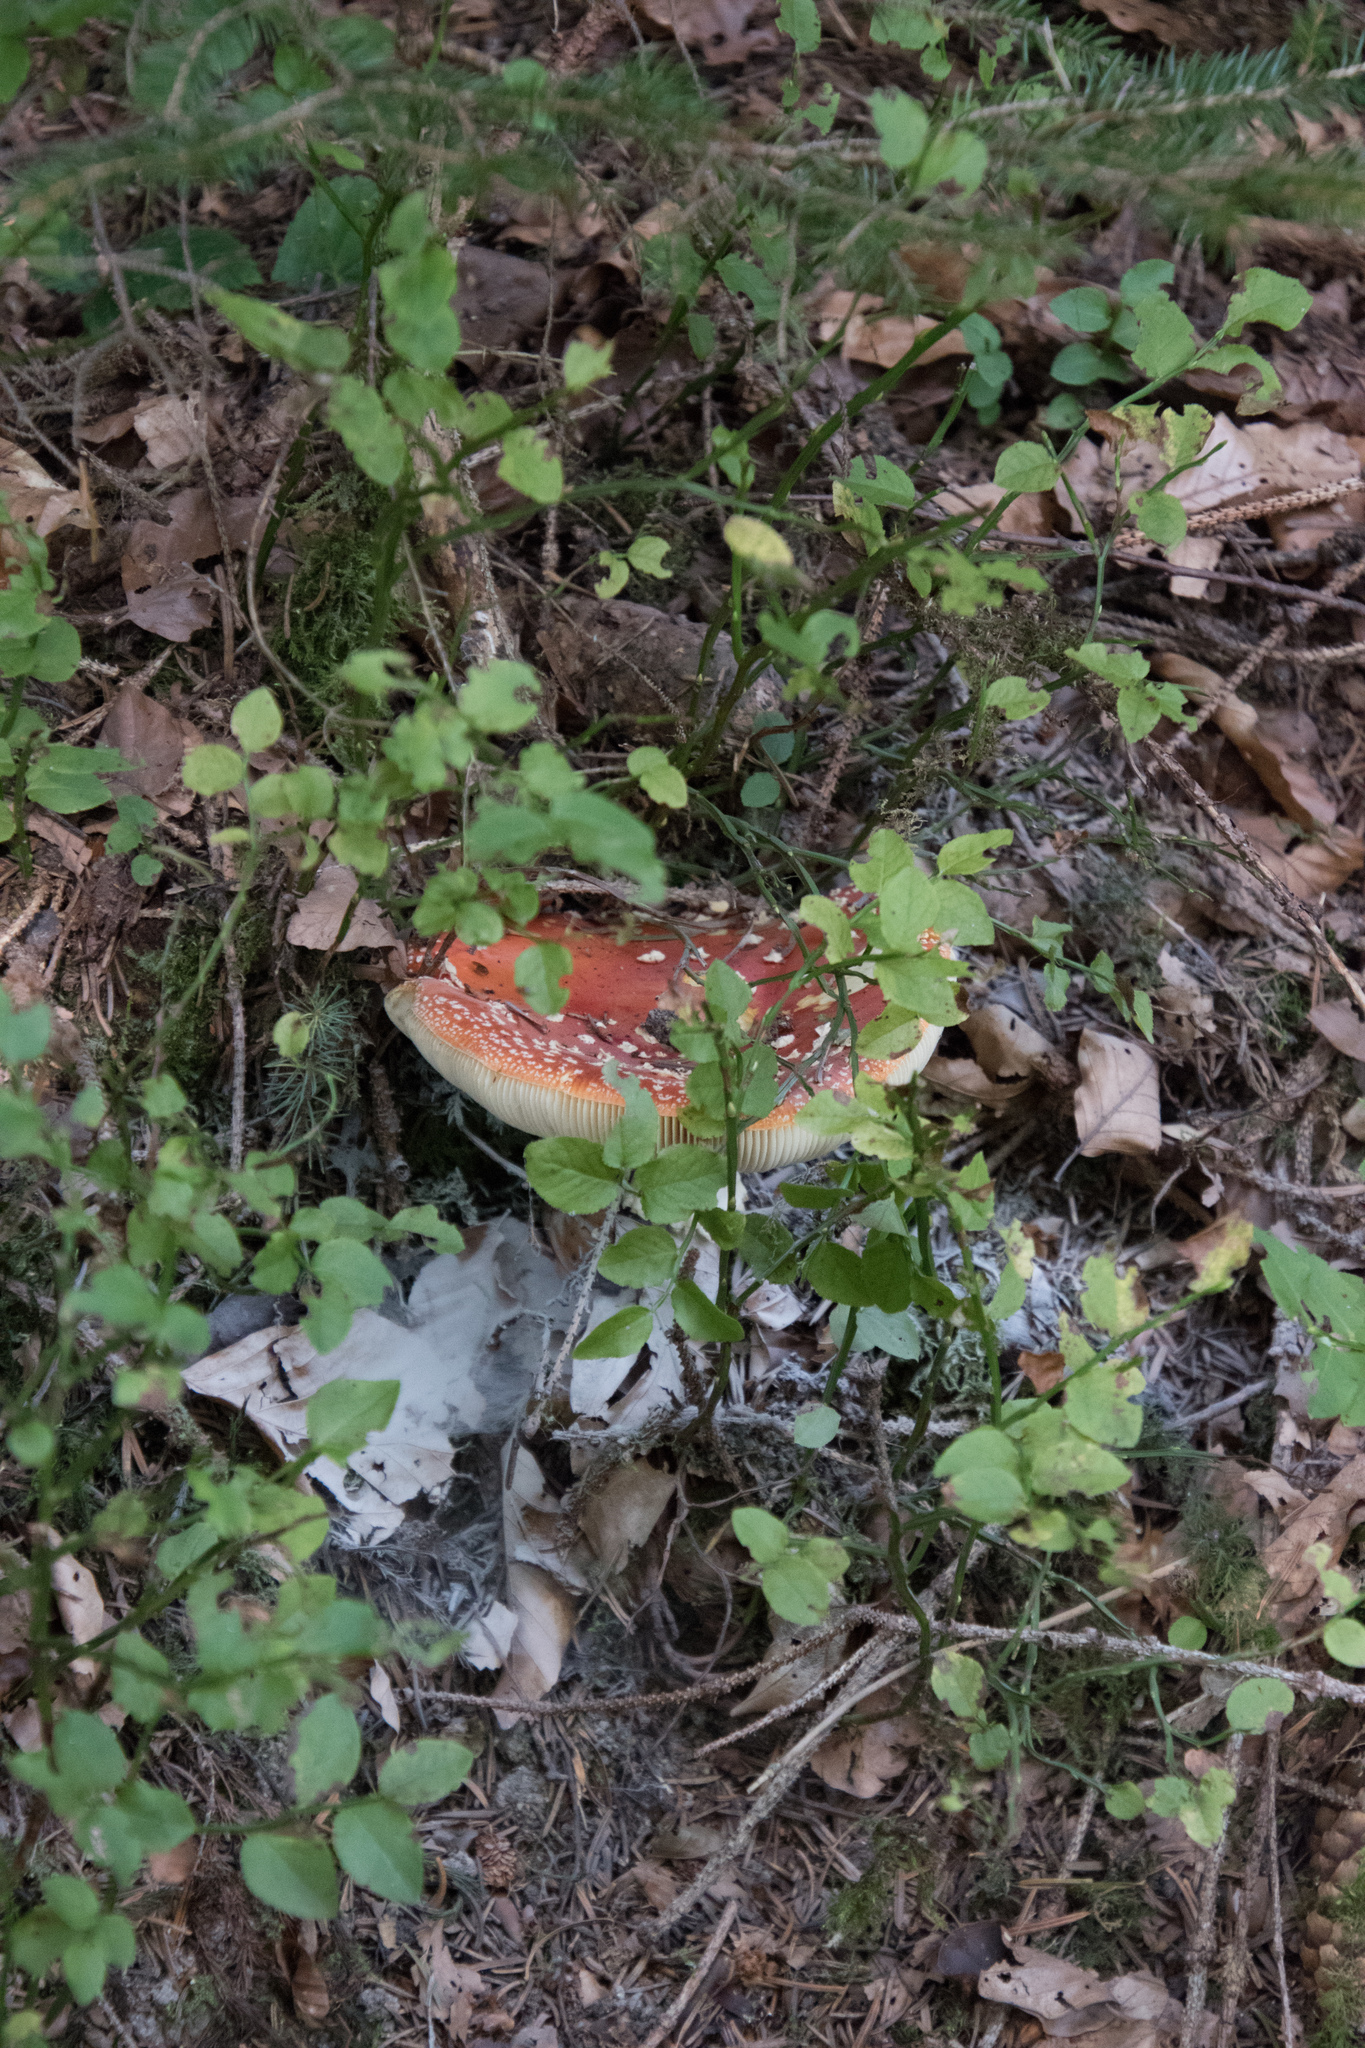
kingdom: Fungi
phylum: Basidiomycota
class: Agaricomycetes
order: Agaricales
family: Amanitaceae
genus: Amanita
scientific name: Amanita muscaria
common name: Fly agaric
